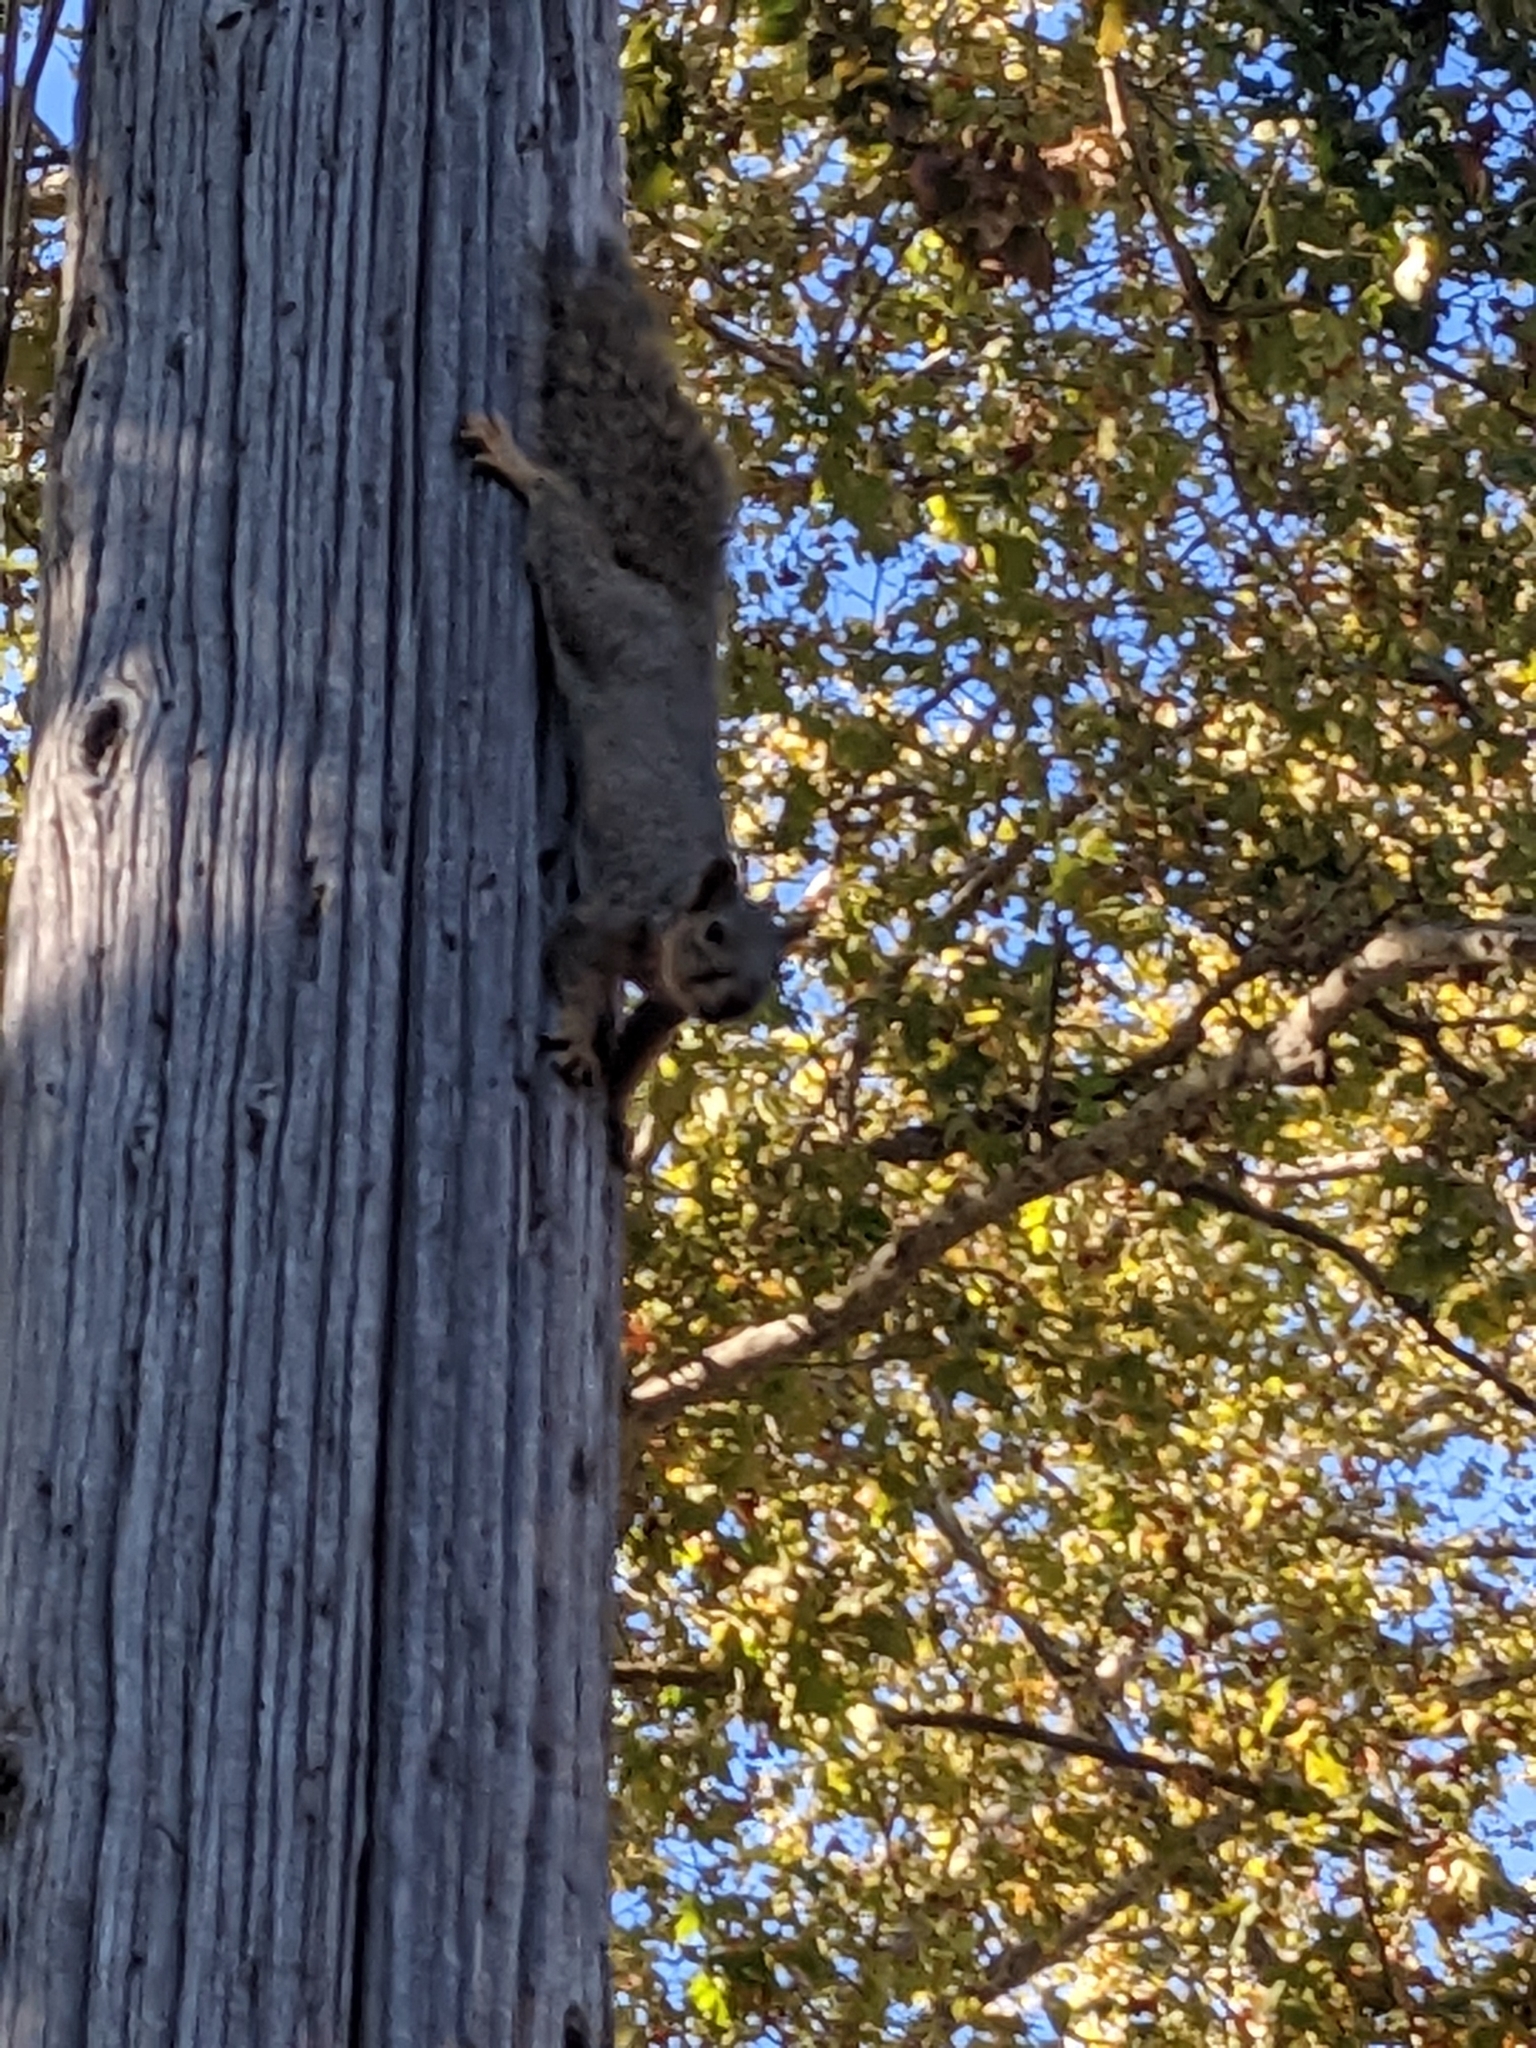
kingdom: Animalia
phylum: Chordata
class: Mammalia
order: Rodentia
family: Sciuridae
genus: Sciurus
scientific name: Sciurus niger
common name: Fox squirrel
